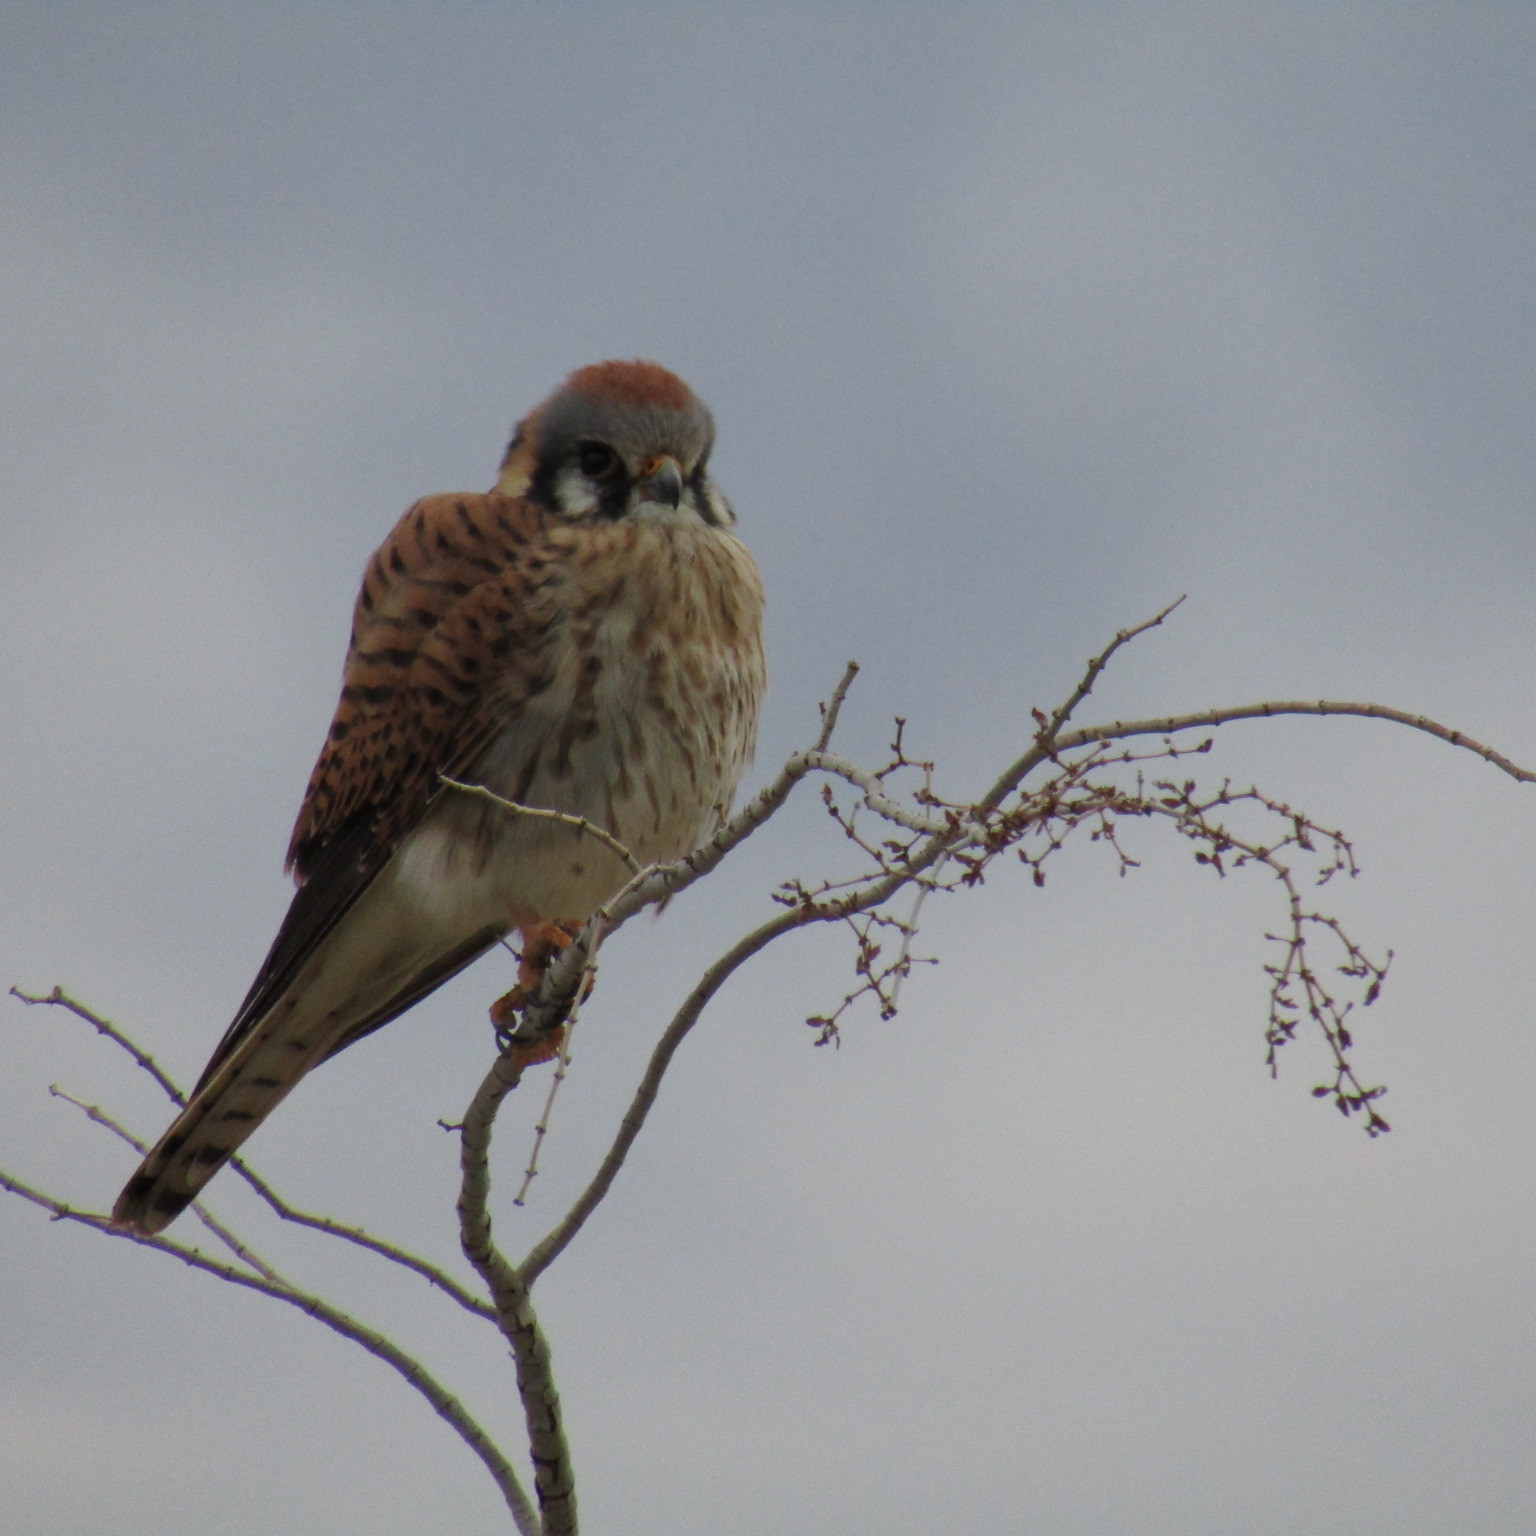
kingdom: Animalia
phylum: Chordata
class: Aves
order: Falconiformes
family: Falconidae
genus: Falco
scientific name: Falco sparverius
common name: American kestrel
